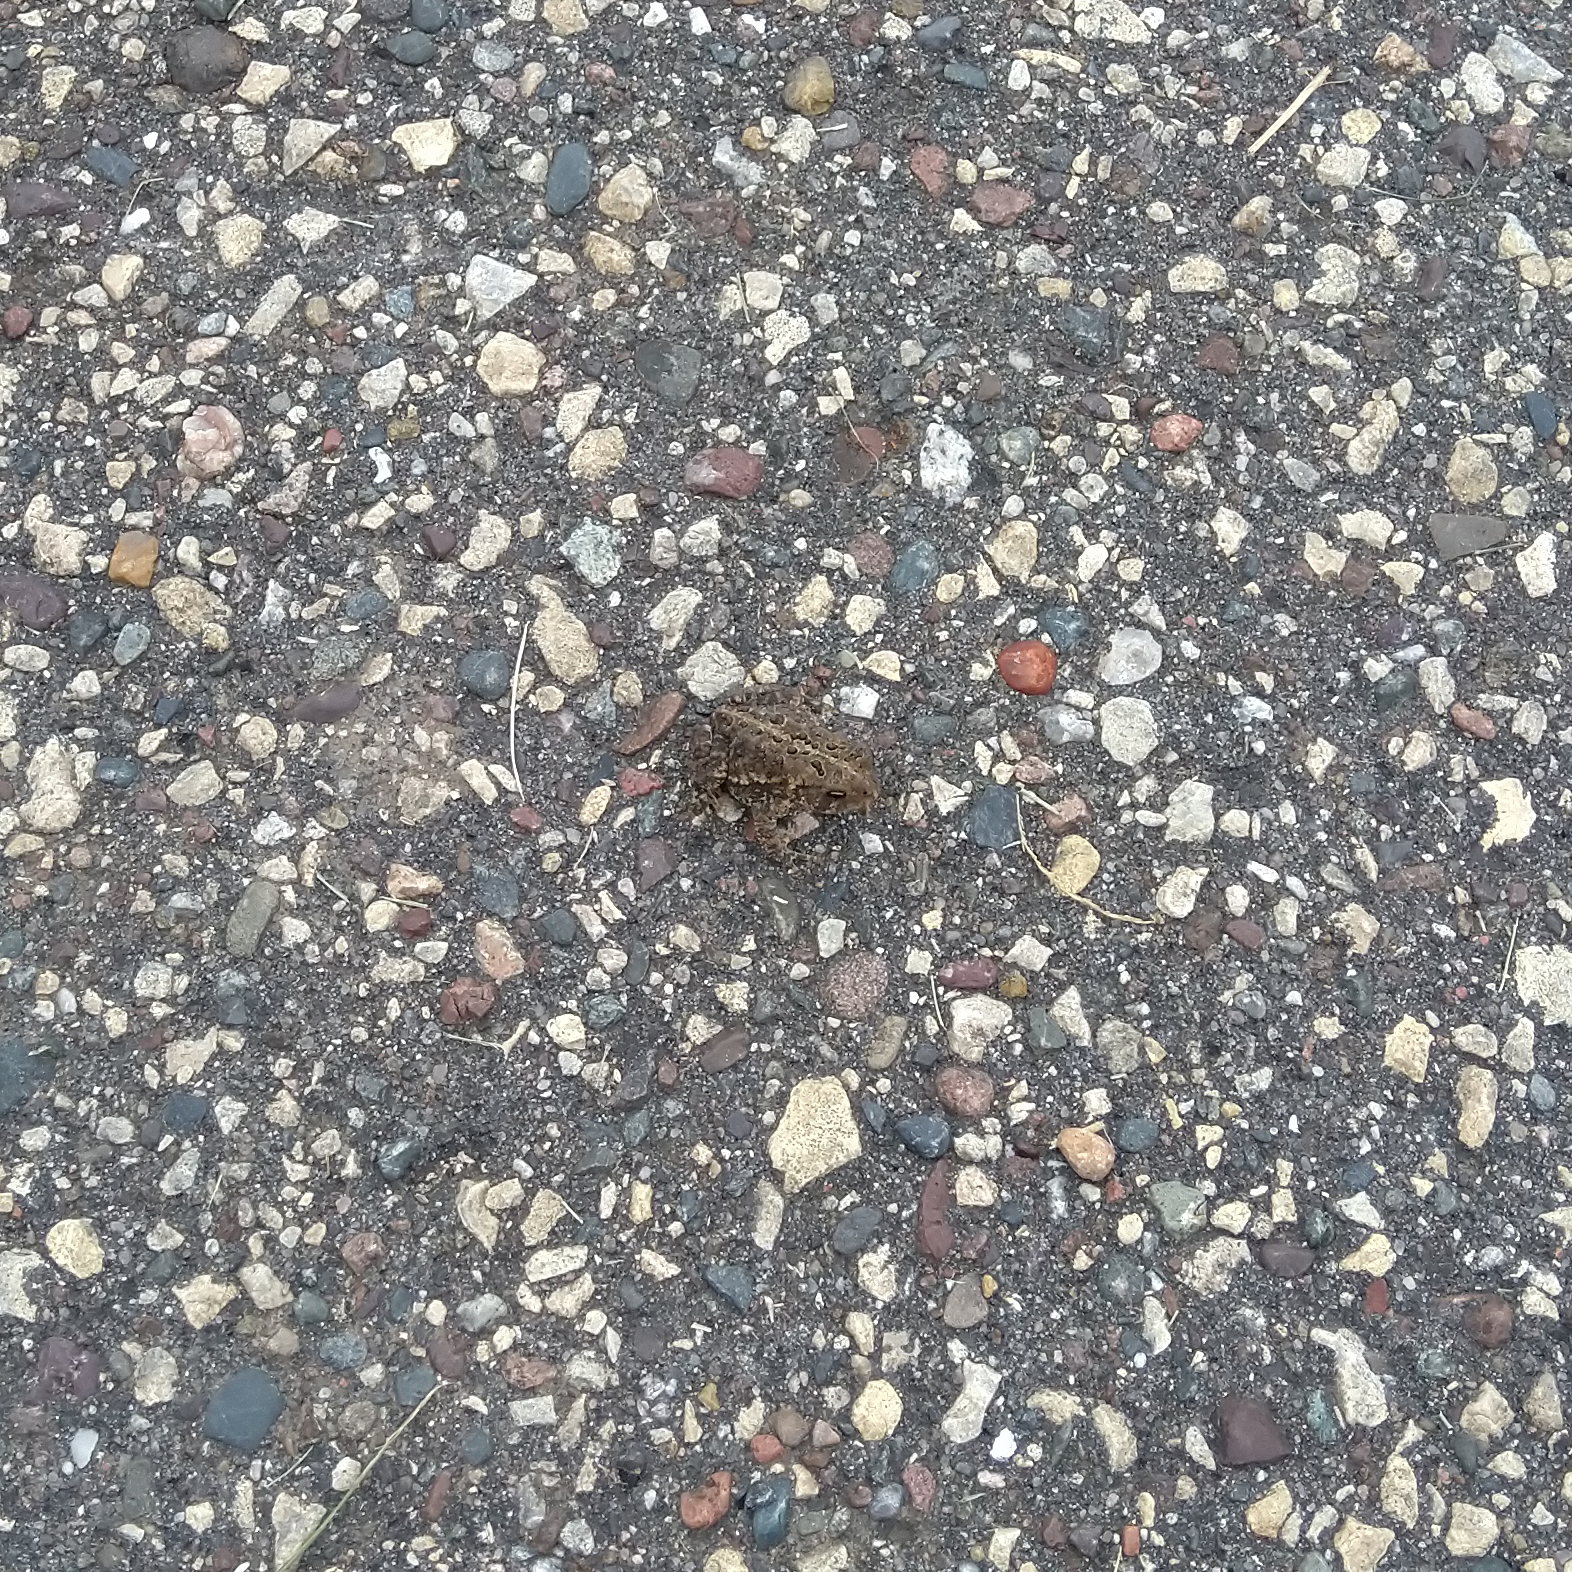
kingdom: Animalia
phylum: Chordata
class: Amphibia
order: Anura
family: Bufonidae
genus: Anaxyrus
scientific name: Anaxyrus americanus
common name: American toad
